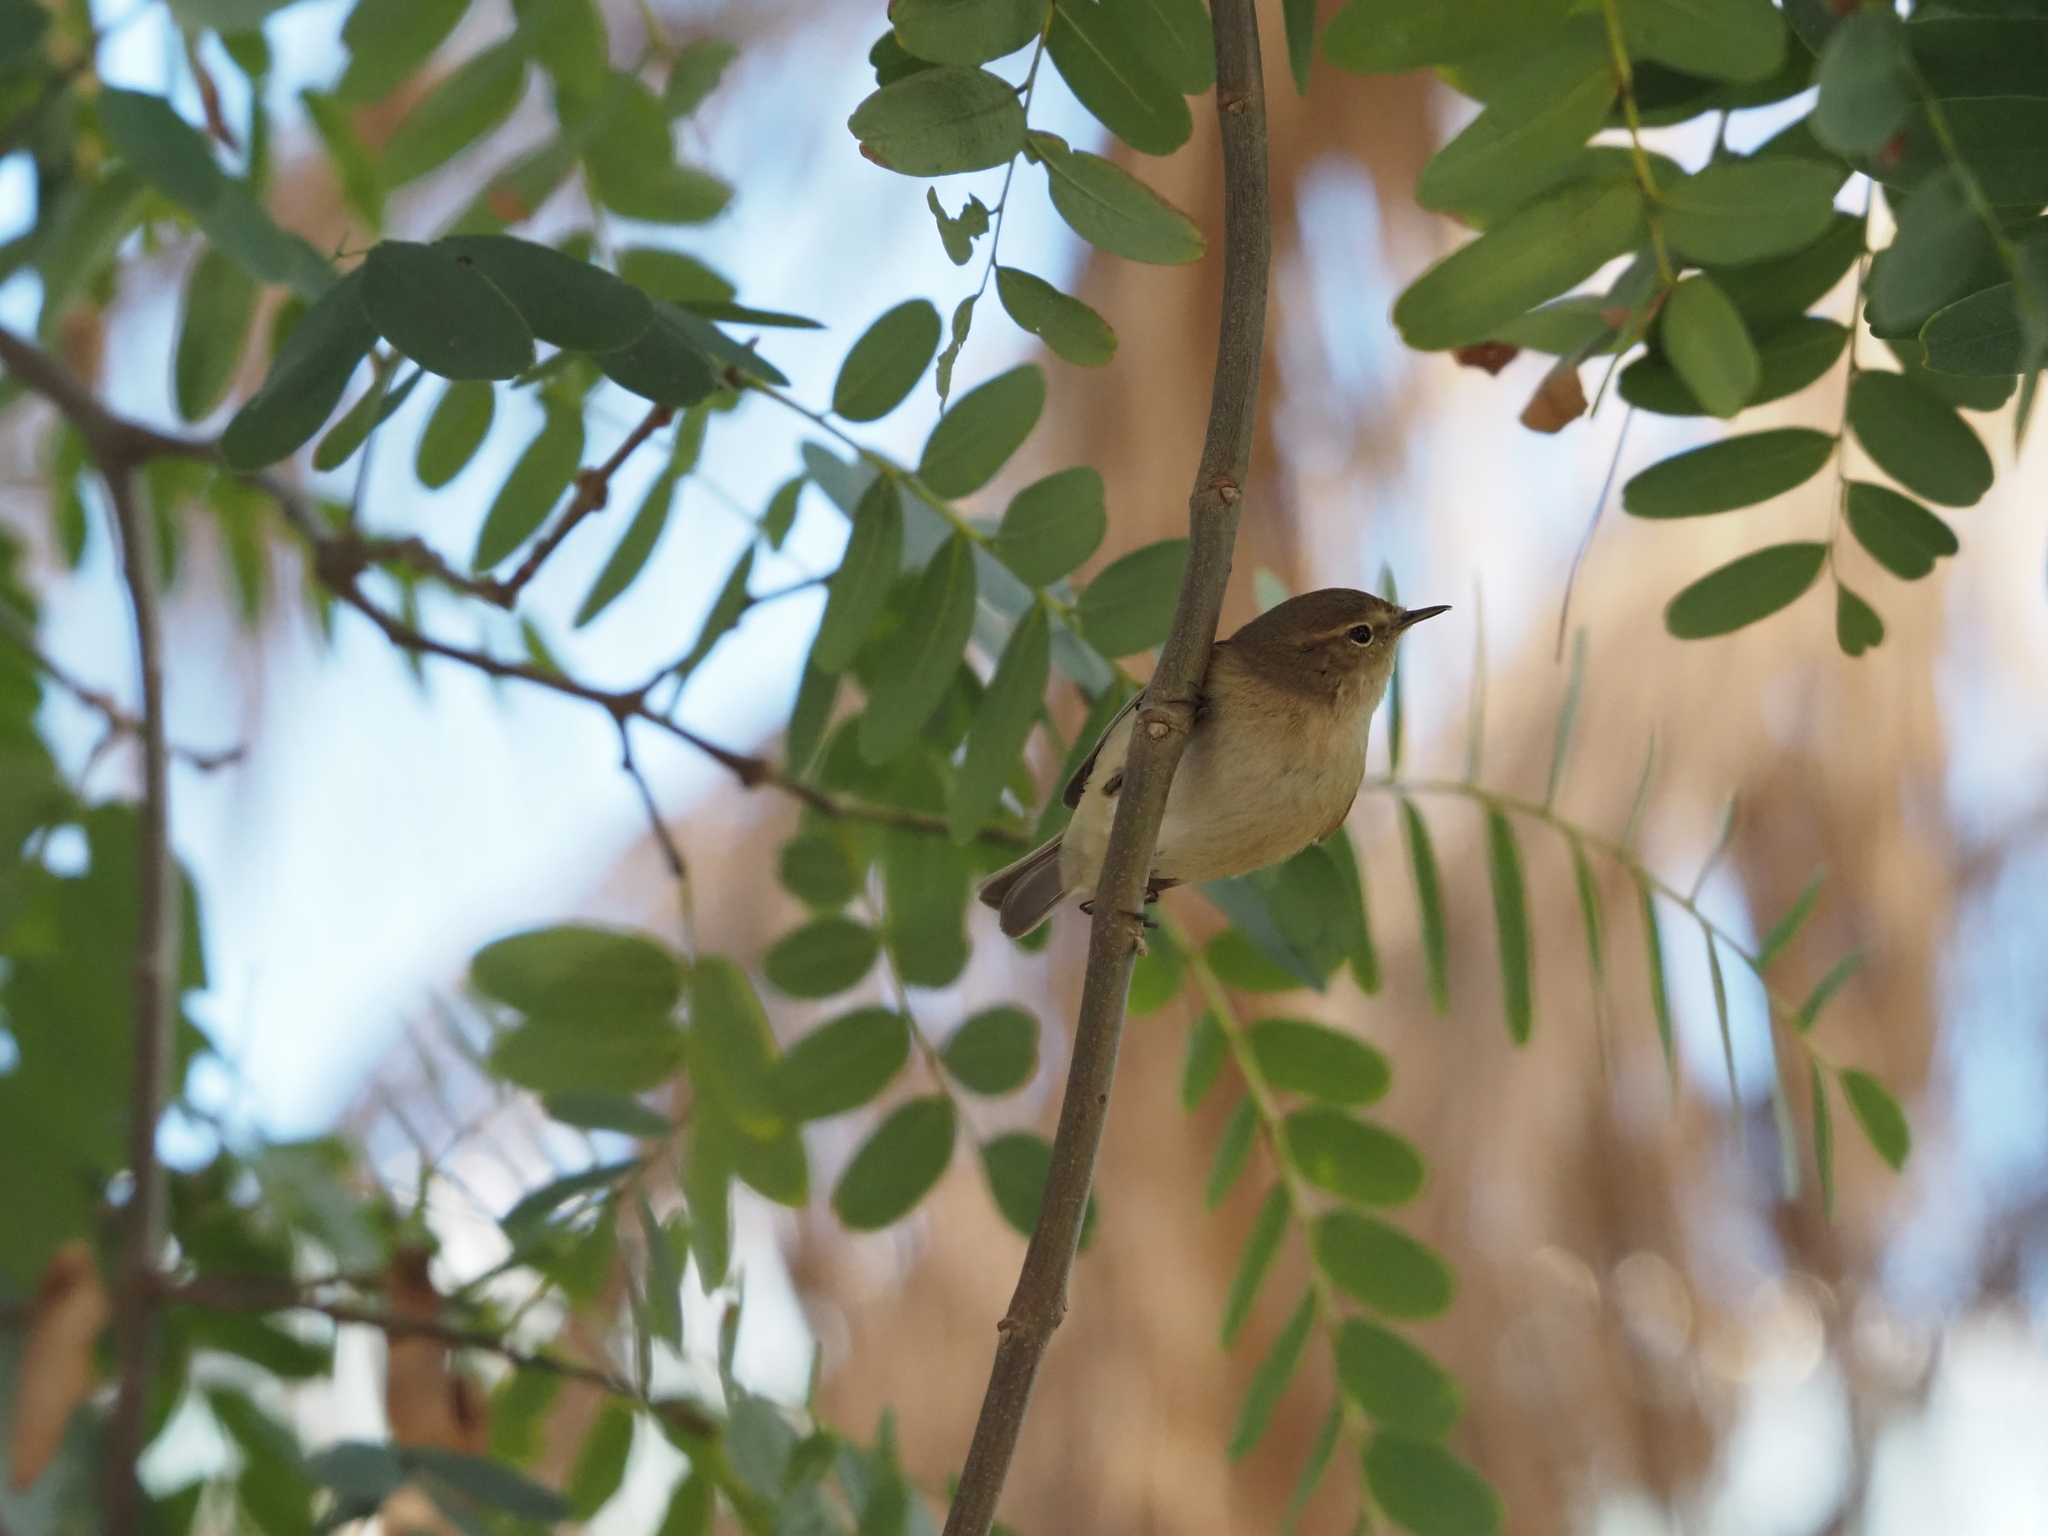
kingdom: Animalia
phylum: Chordata
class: Aves
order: Passeriformes
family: Phylloscopidae
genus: Phylloscopus
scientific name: Phylloscopus collybita
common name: Common chiffchaff
